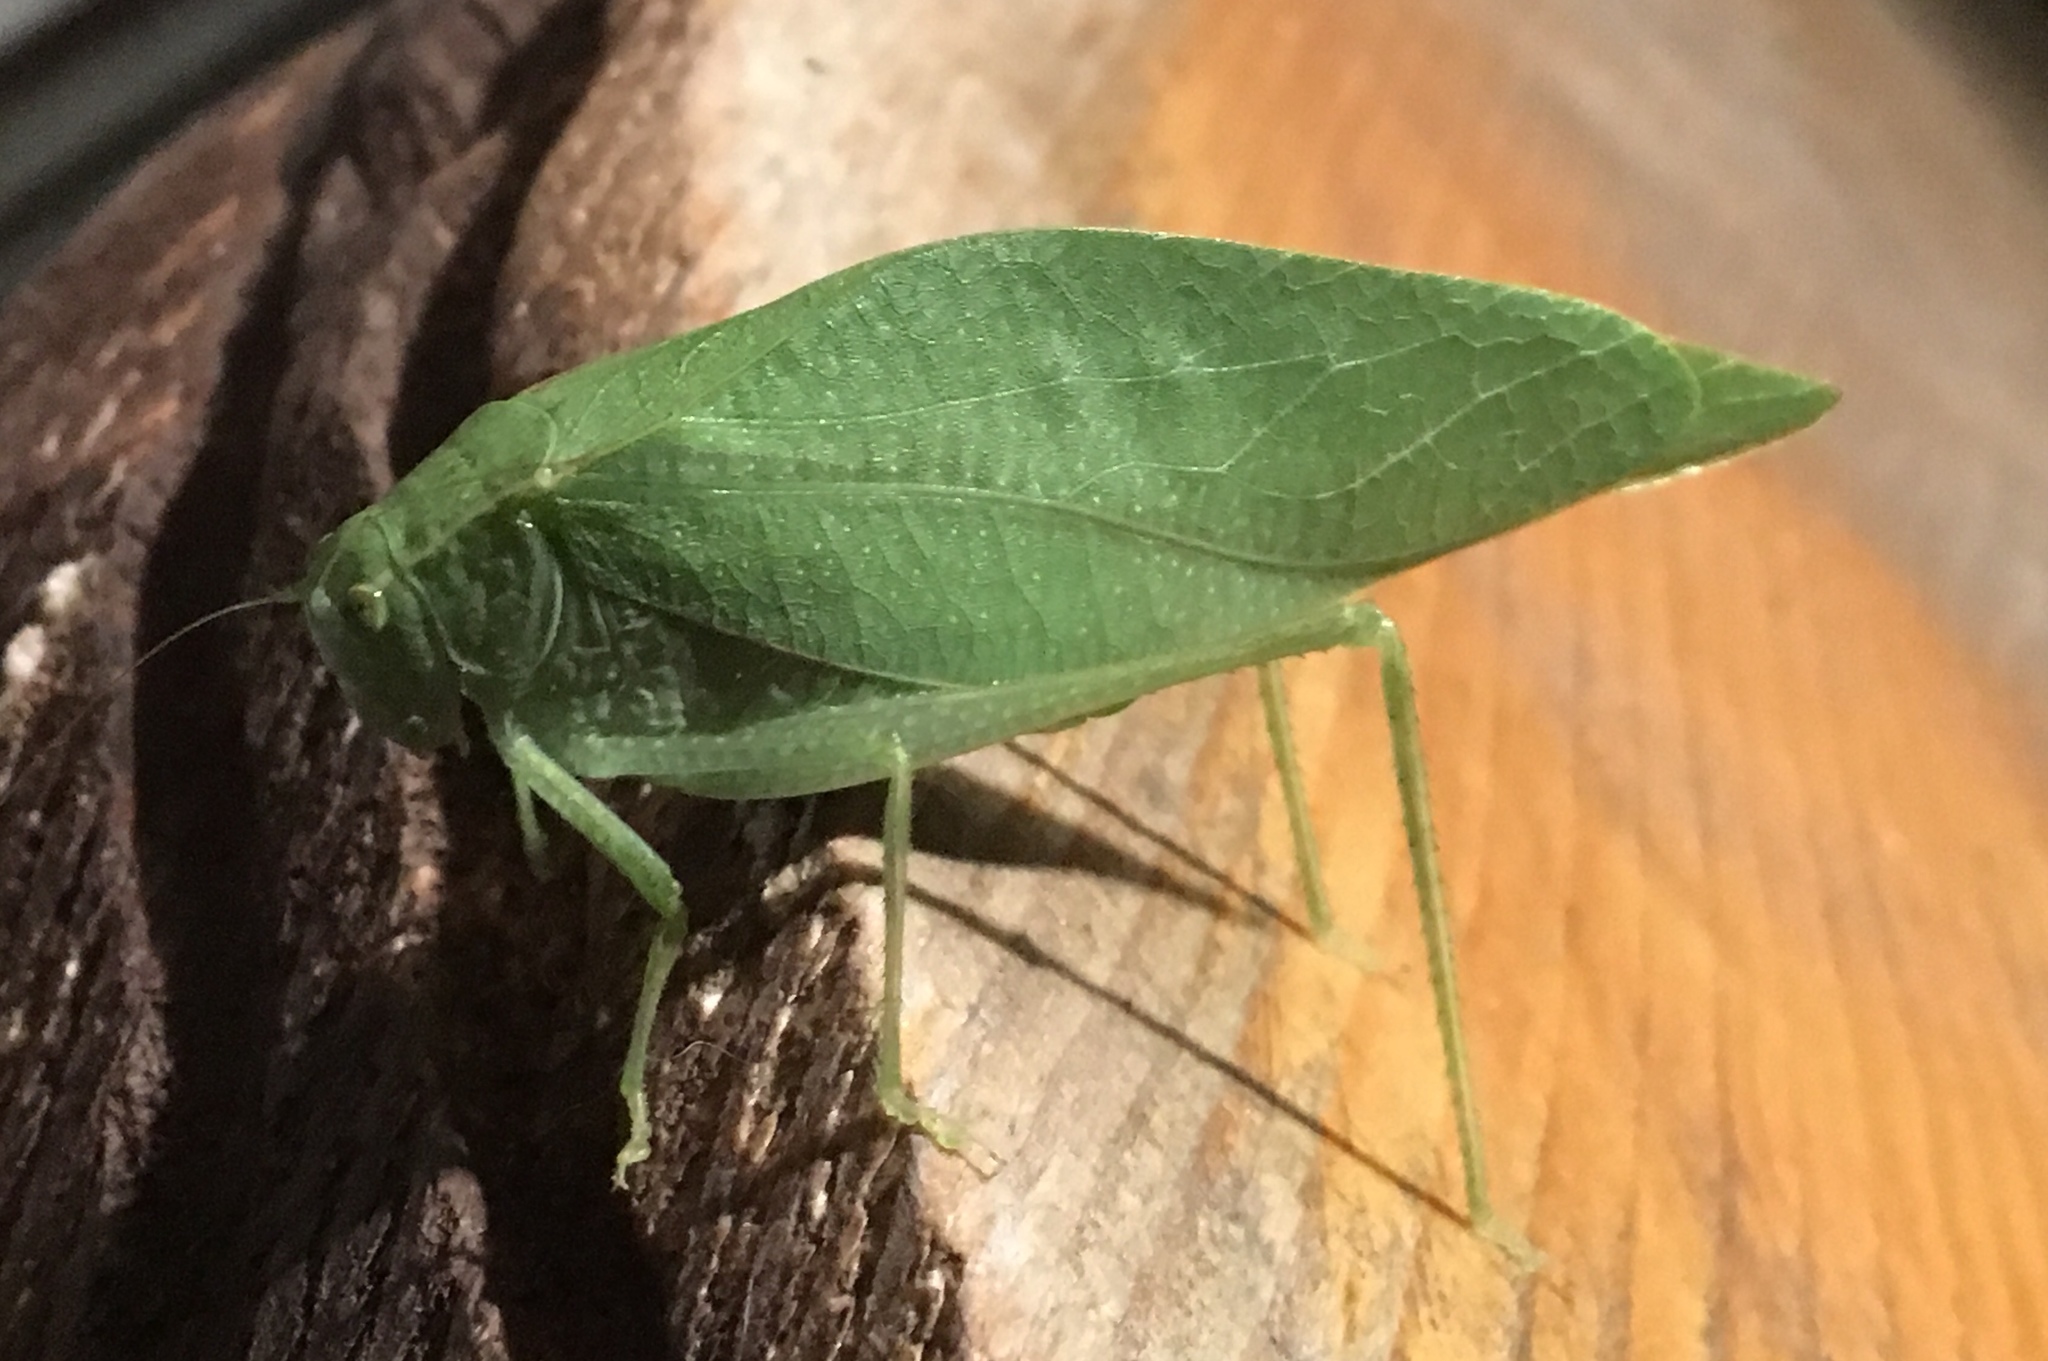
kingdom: Animalia
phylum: Arthropoda
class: Insecta
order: Orthoptera
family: Tettigoniidae
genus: Microcentrum
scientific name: Microcentrum rhombifolium
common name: Broad-winged katydid
